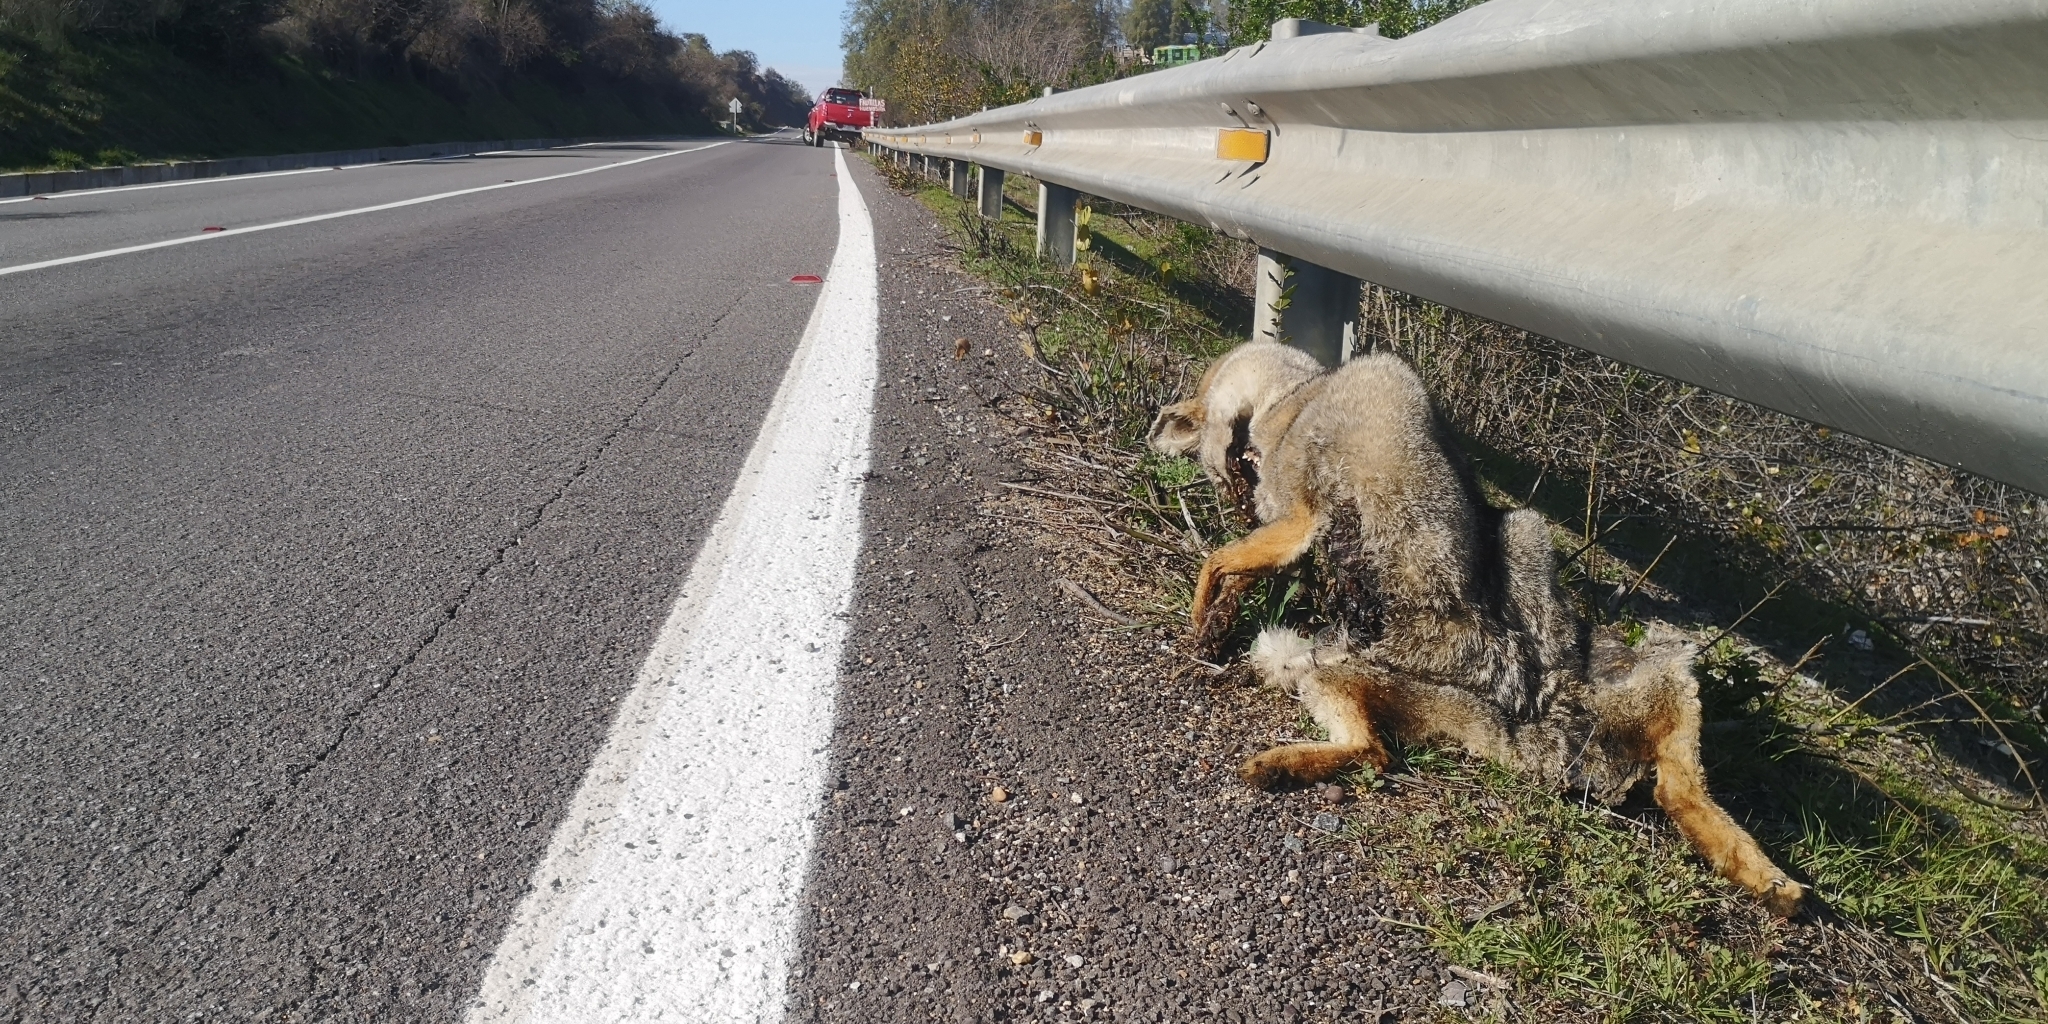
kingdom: Animalia
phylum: Chordata
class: Mammalia
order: Carnivora
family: Canidae
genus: Lycalopex
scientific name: Lycalopex gymnocercus
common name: Pampas fox
